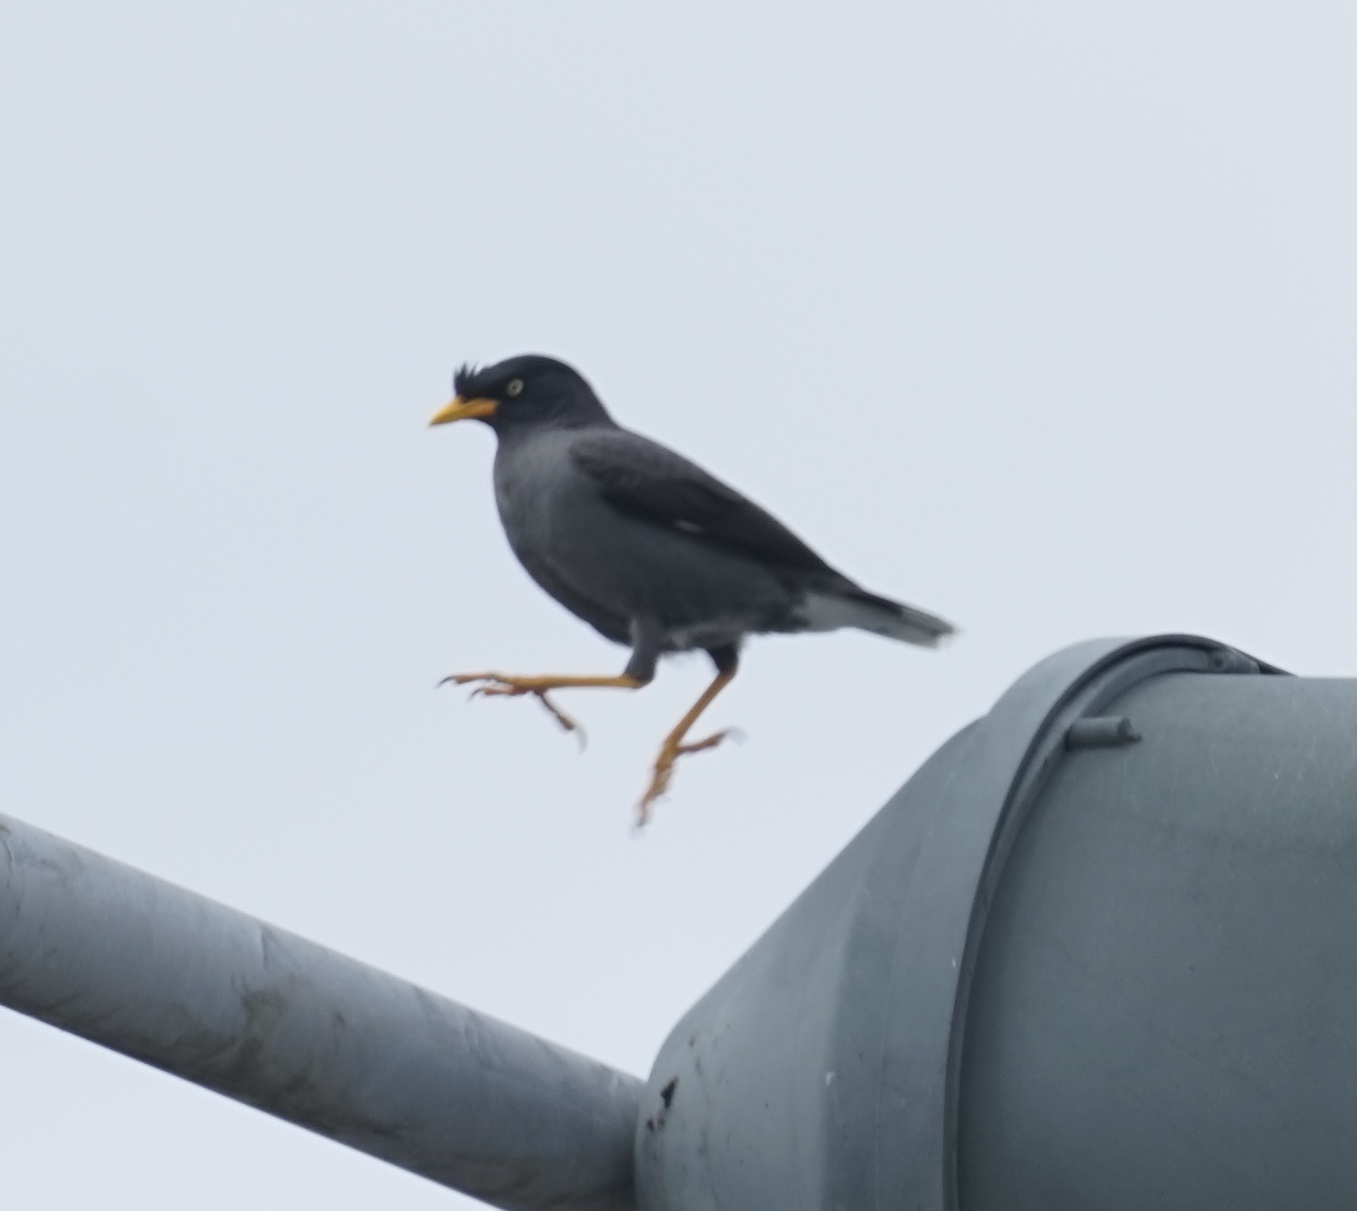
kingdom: Animalia
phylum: Chordata
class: Aves
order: Passeriformes
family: Sturnidae
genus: Acridotheres
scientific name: Acridotheres javanicus
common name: Javan myna
